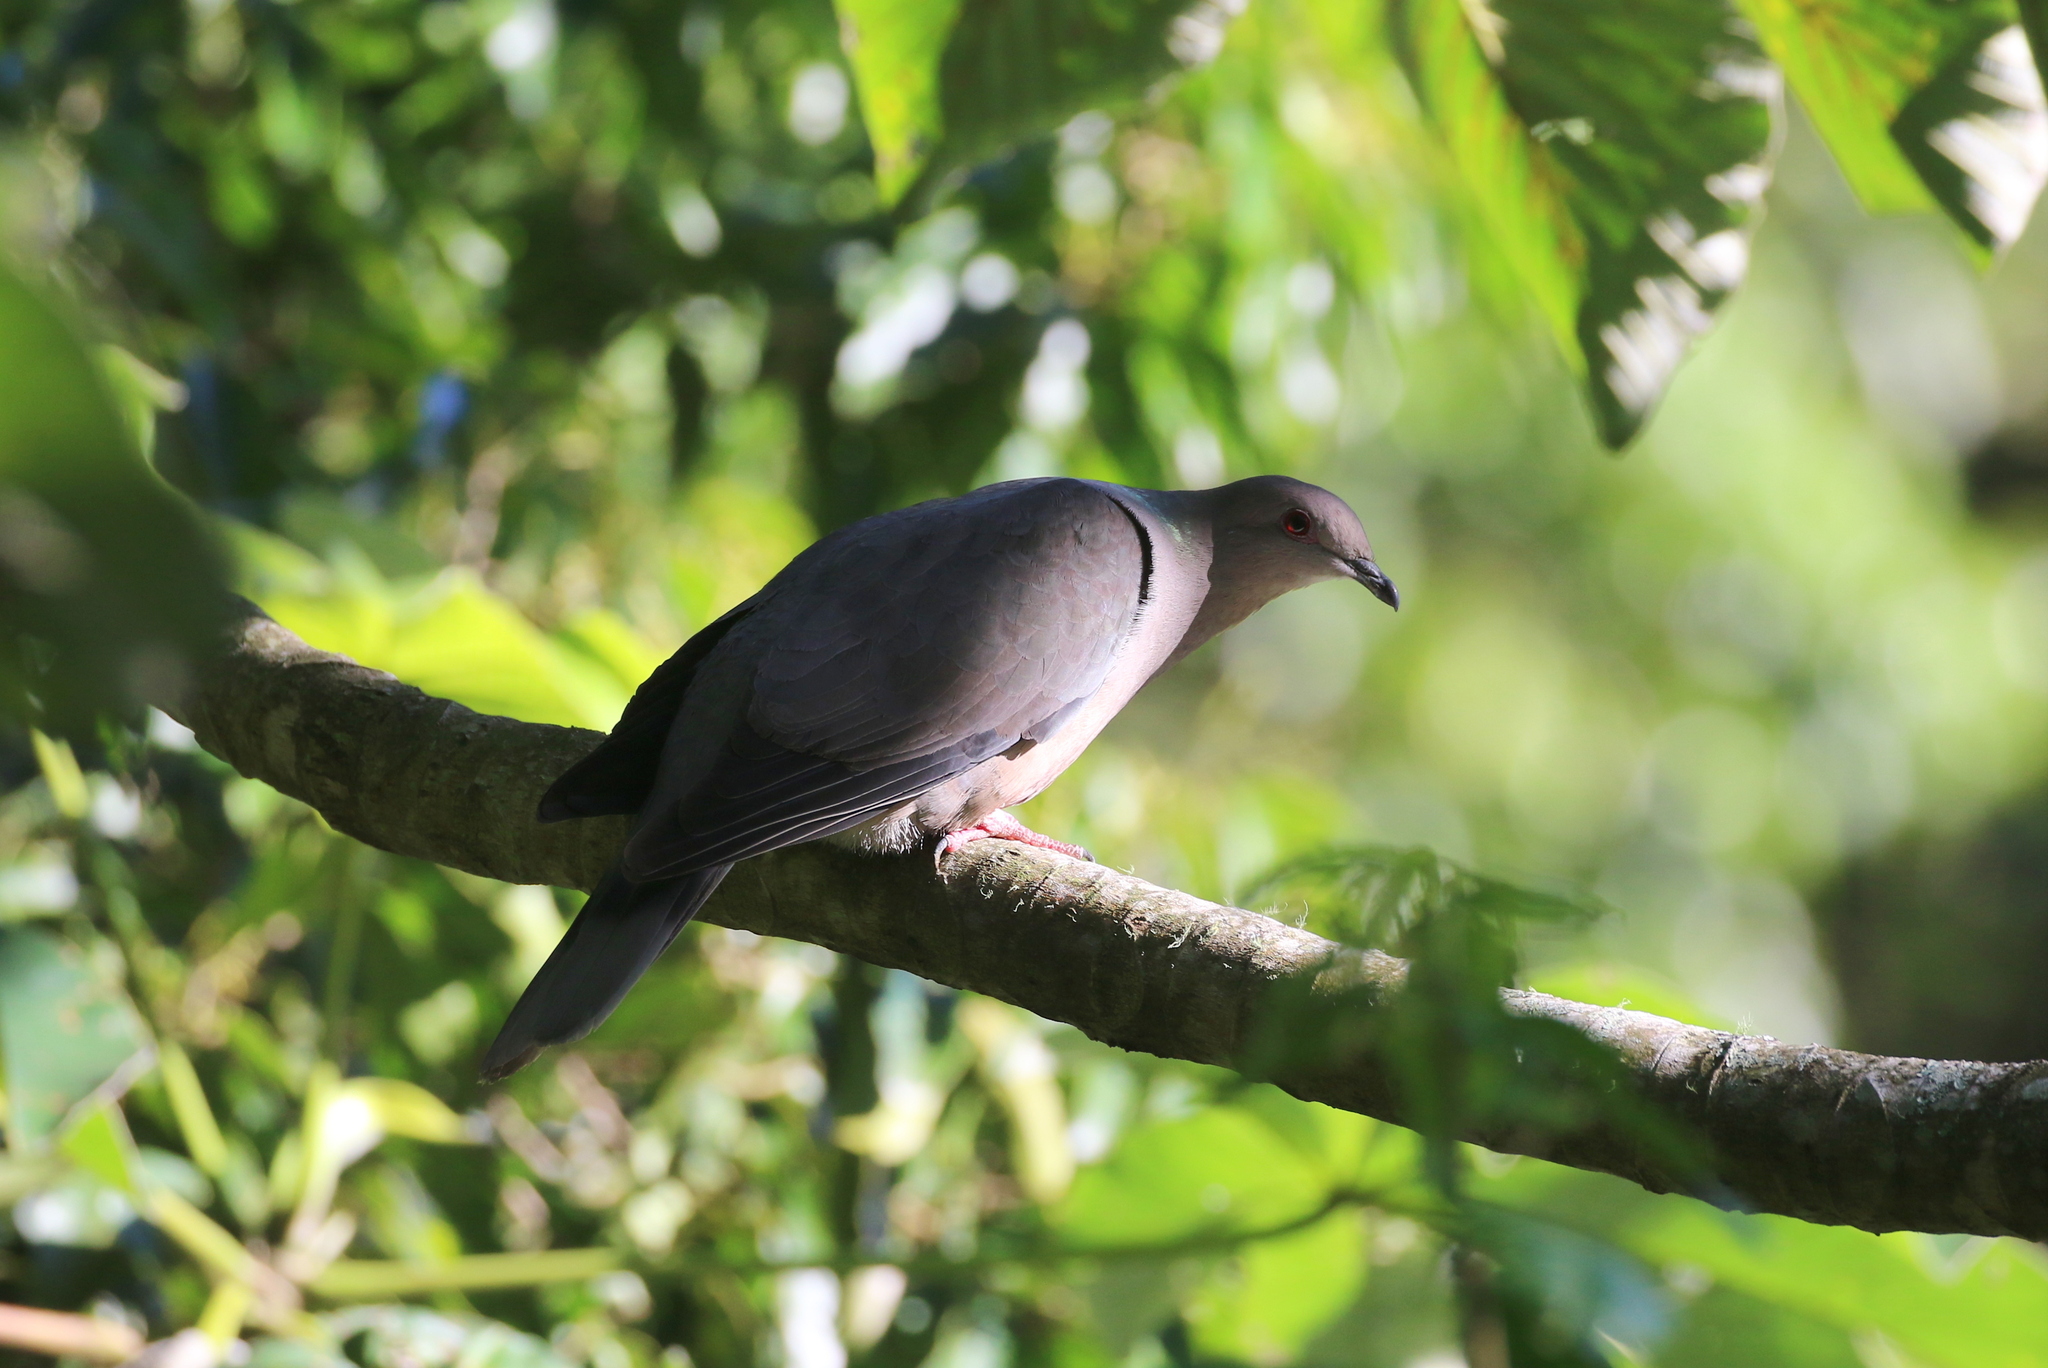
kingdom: Animalia
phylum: Chordata
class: Aves
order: Columbiformes
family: Columbidae
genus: Patagioenas
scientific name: Patagioenas caribaea
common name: Ring-tailed pigeon
